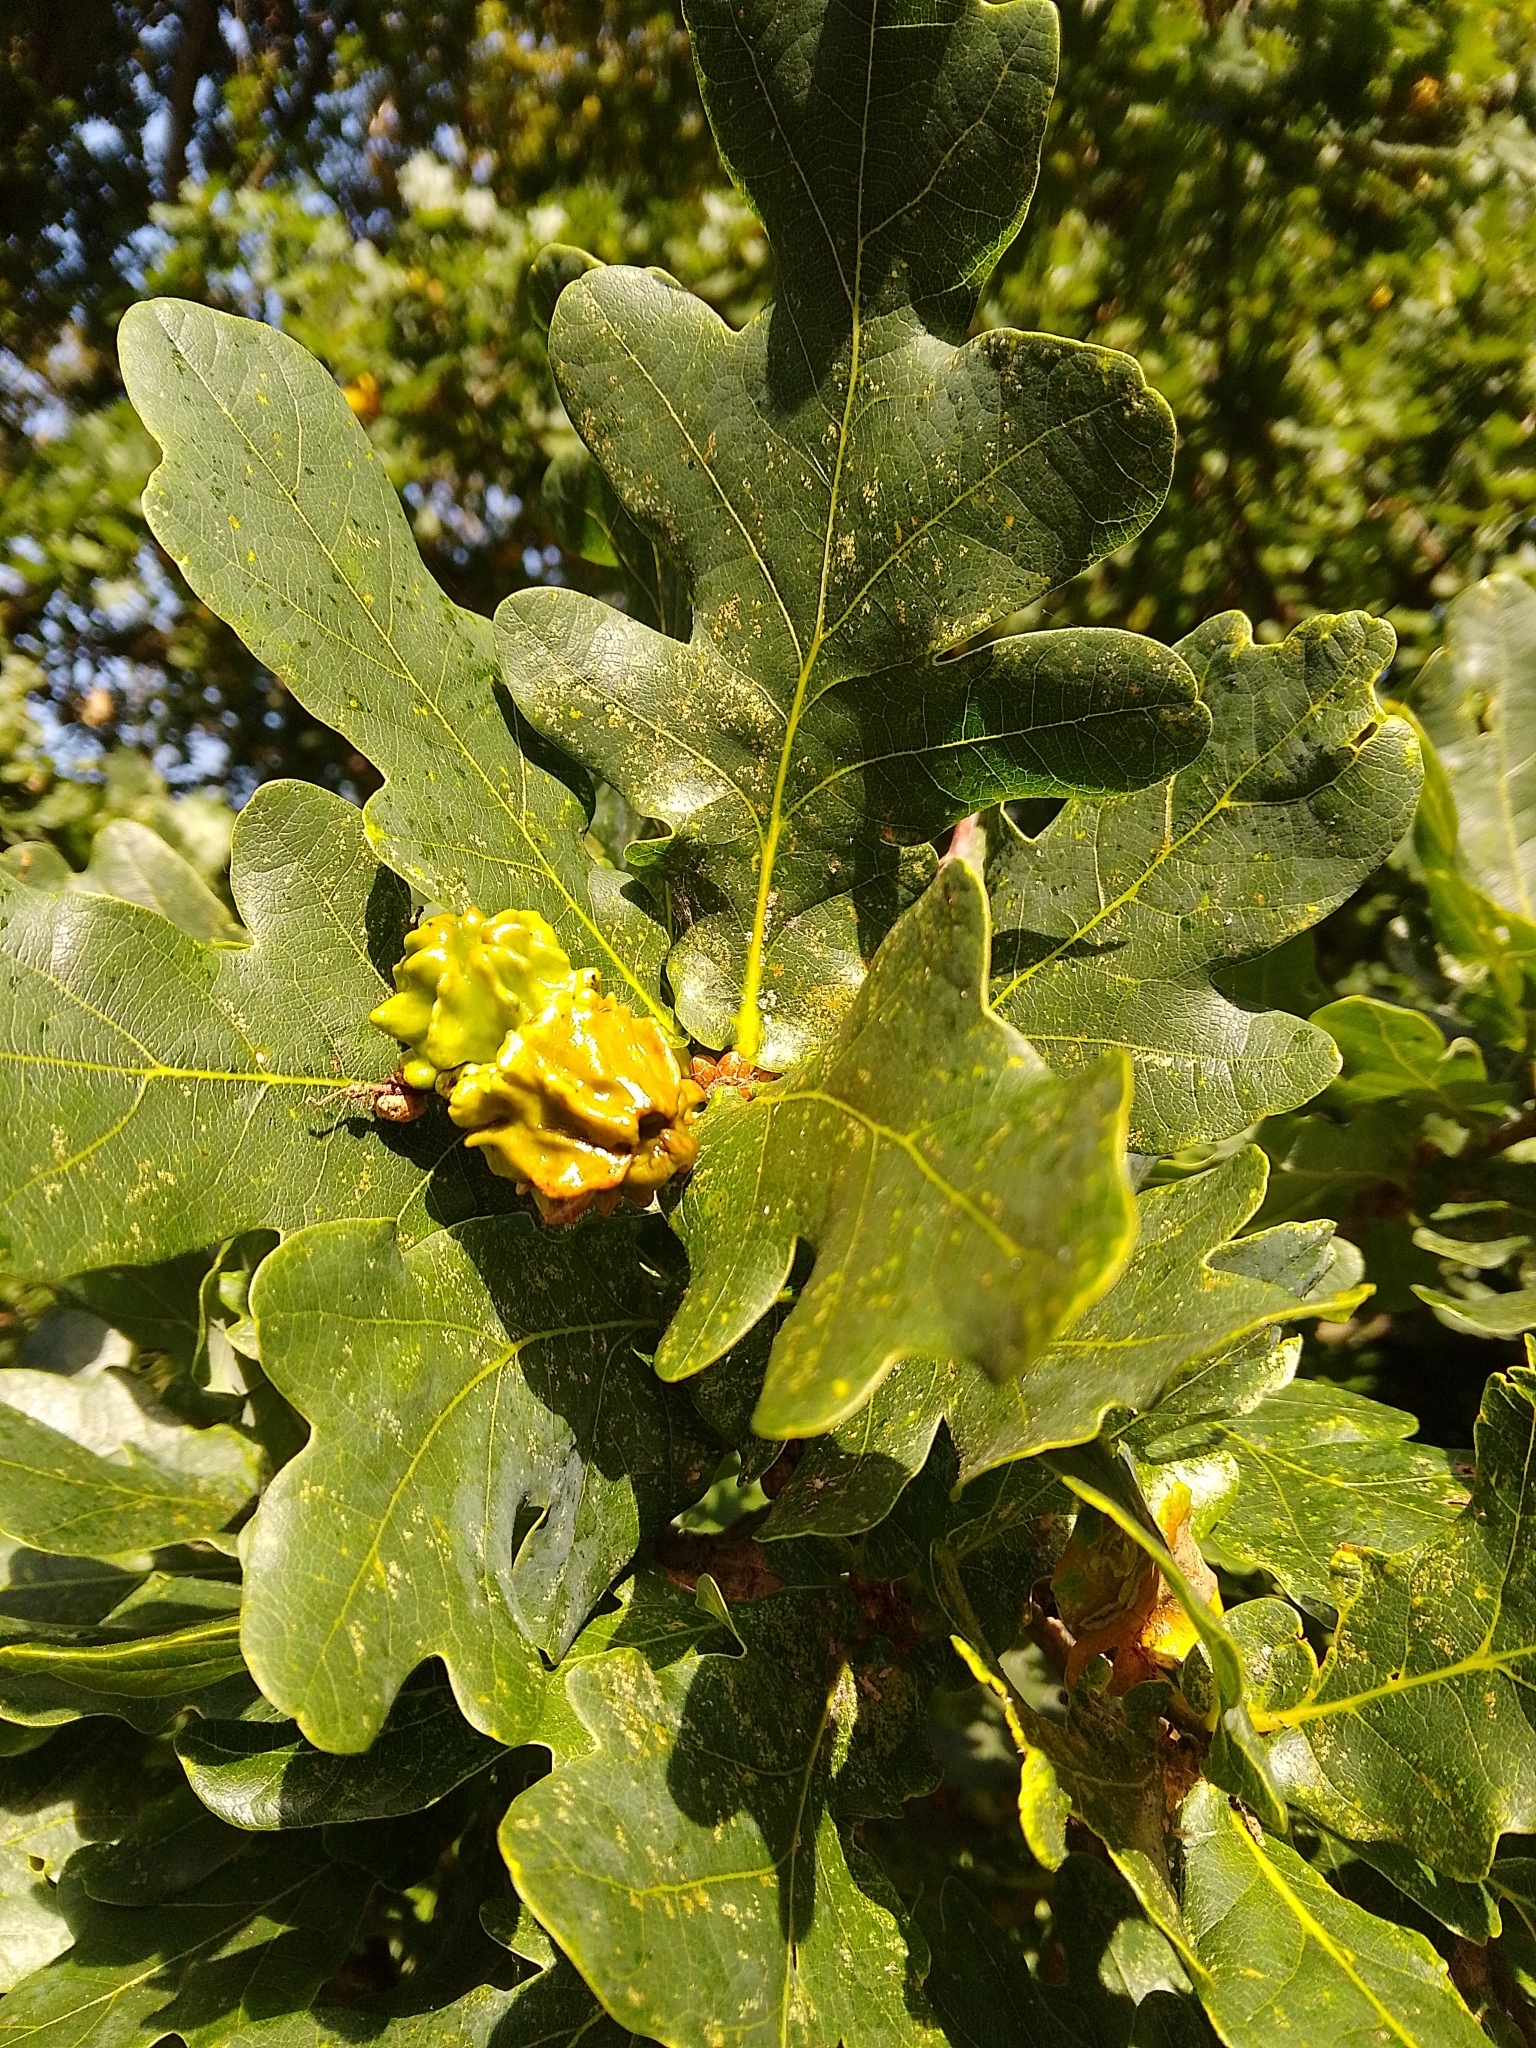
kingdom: Animalia
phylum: Arthropoda
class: Insecta
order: Hymenoptera
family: Cynipidae
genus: Andricus
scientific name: Andricus quercuscalicis
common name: Knopper gall
